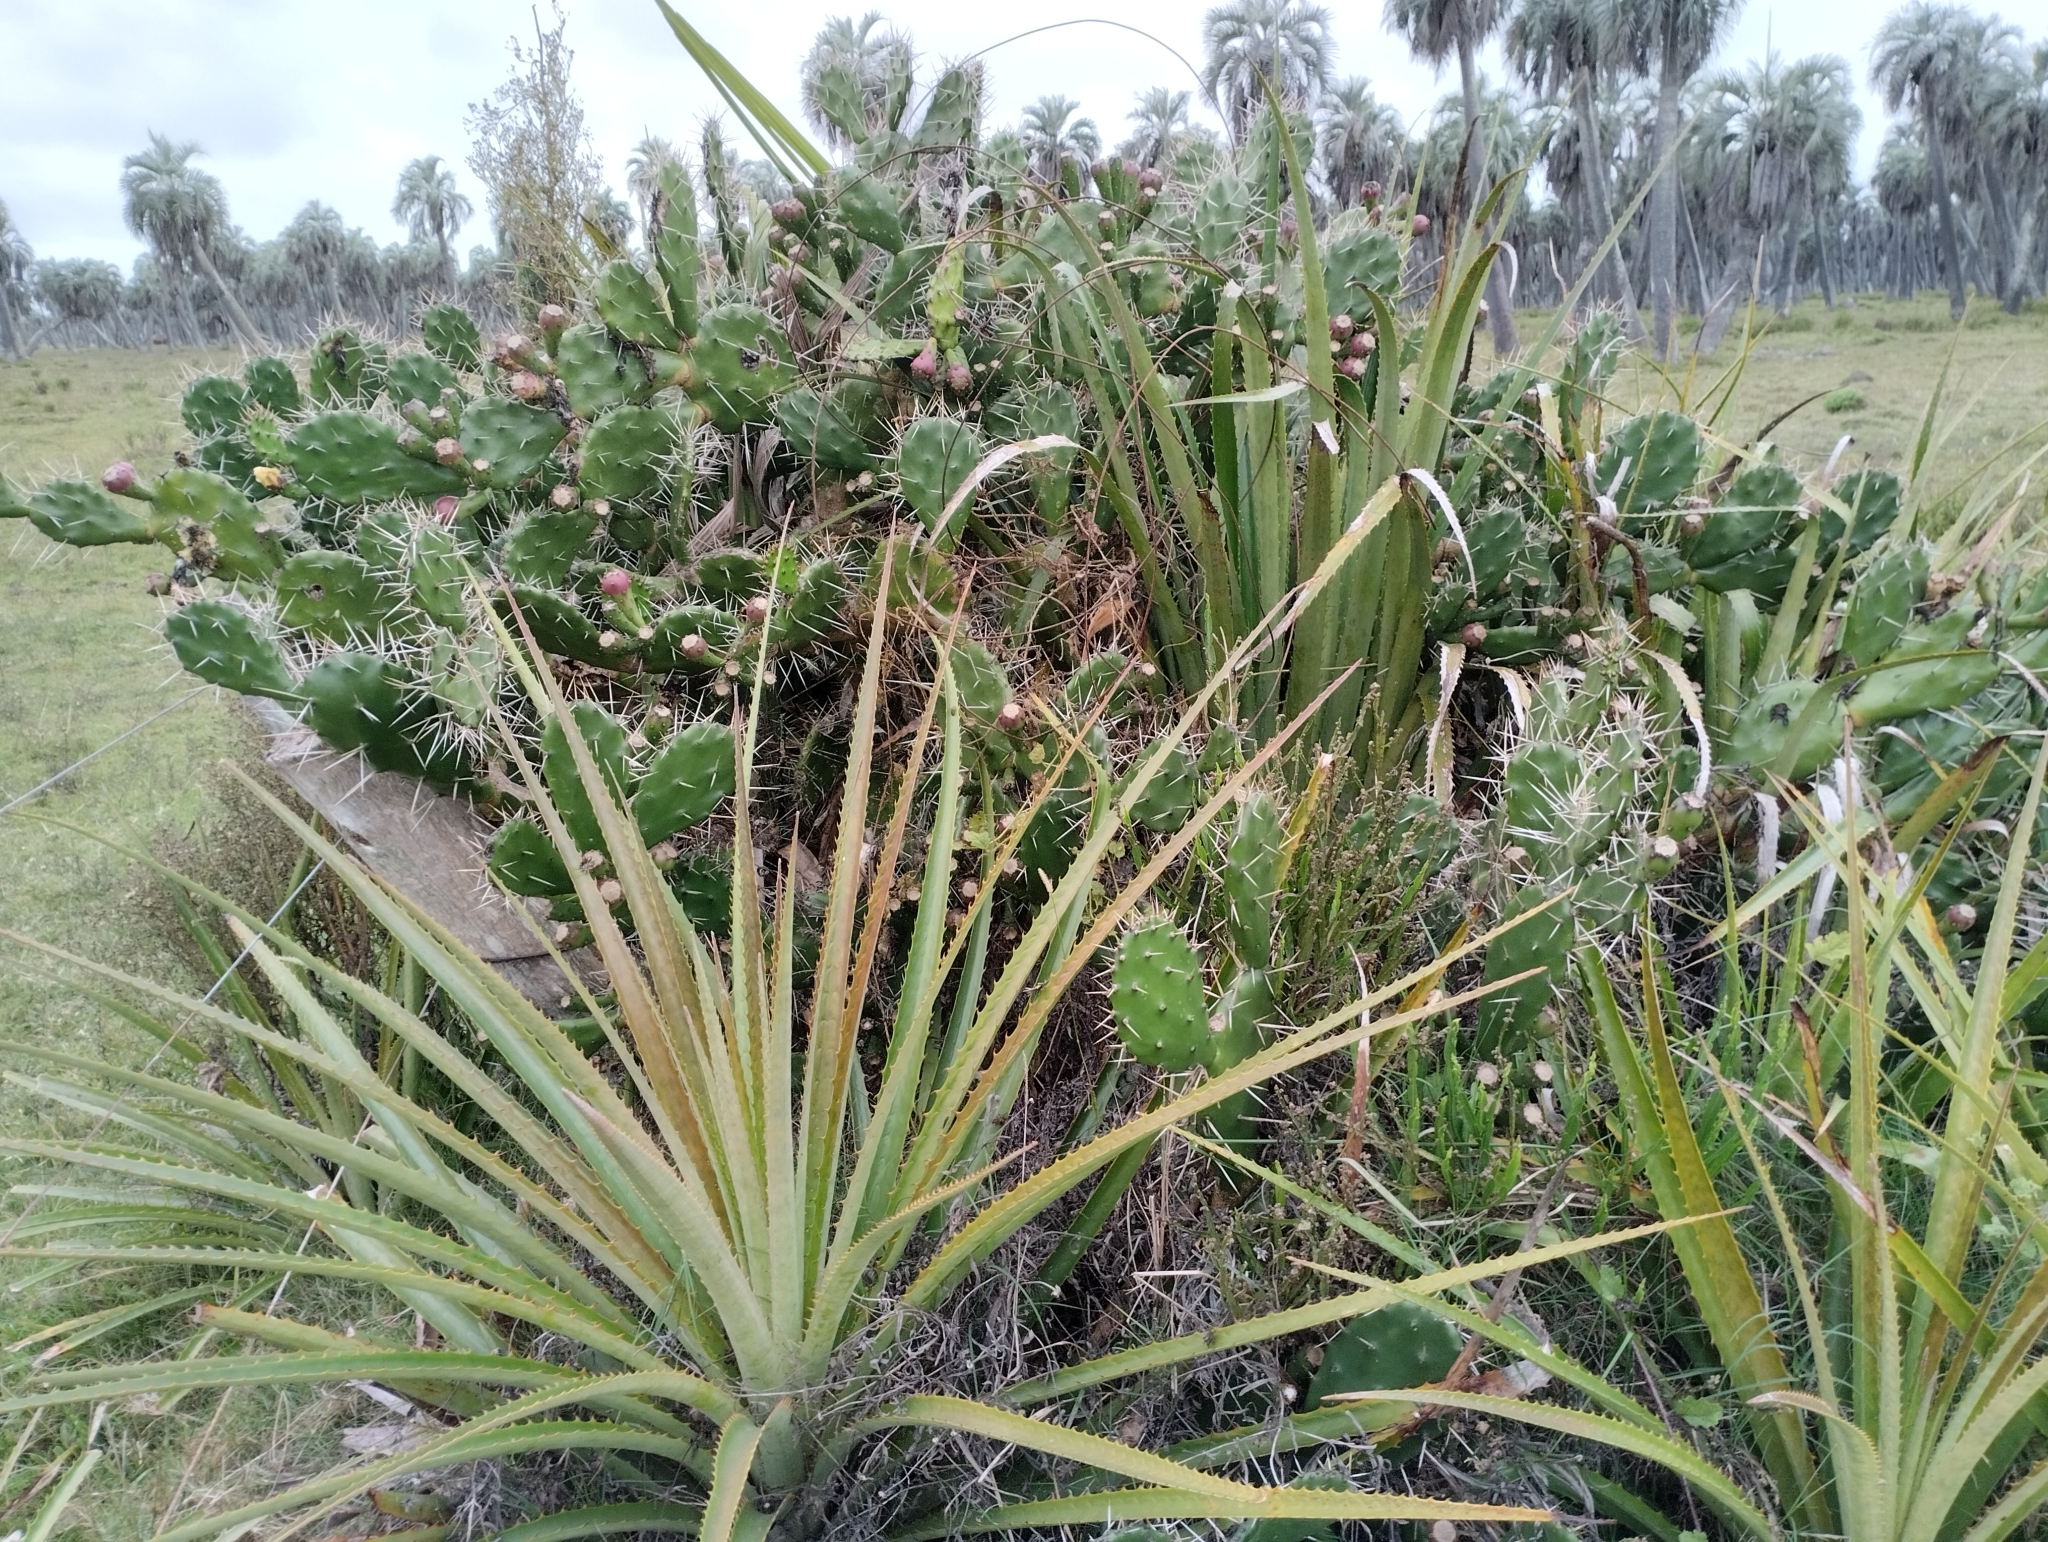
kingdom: Plantae
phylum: Tracheophyta
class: Liliopsida
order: Poales
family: Bromeliaceae
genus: Bromelia
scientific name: Bromelia antiacantha
